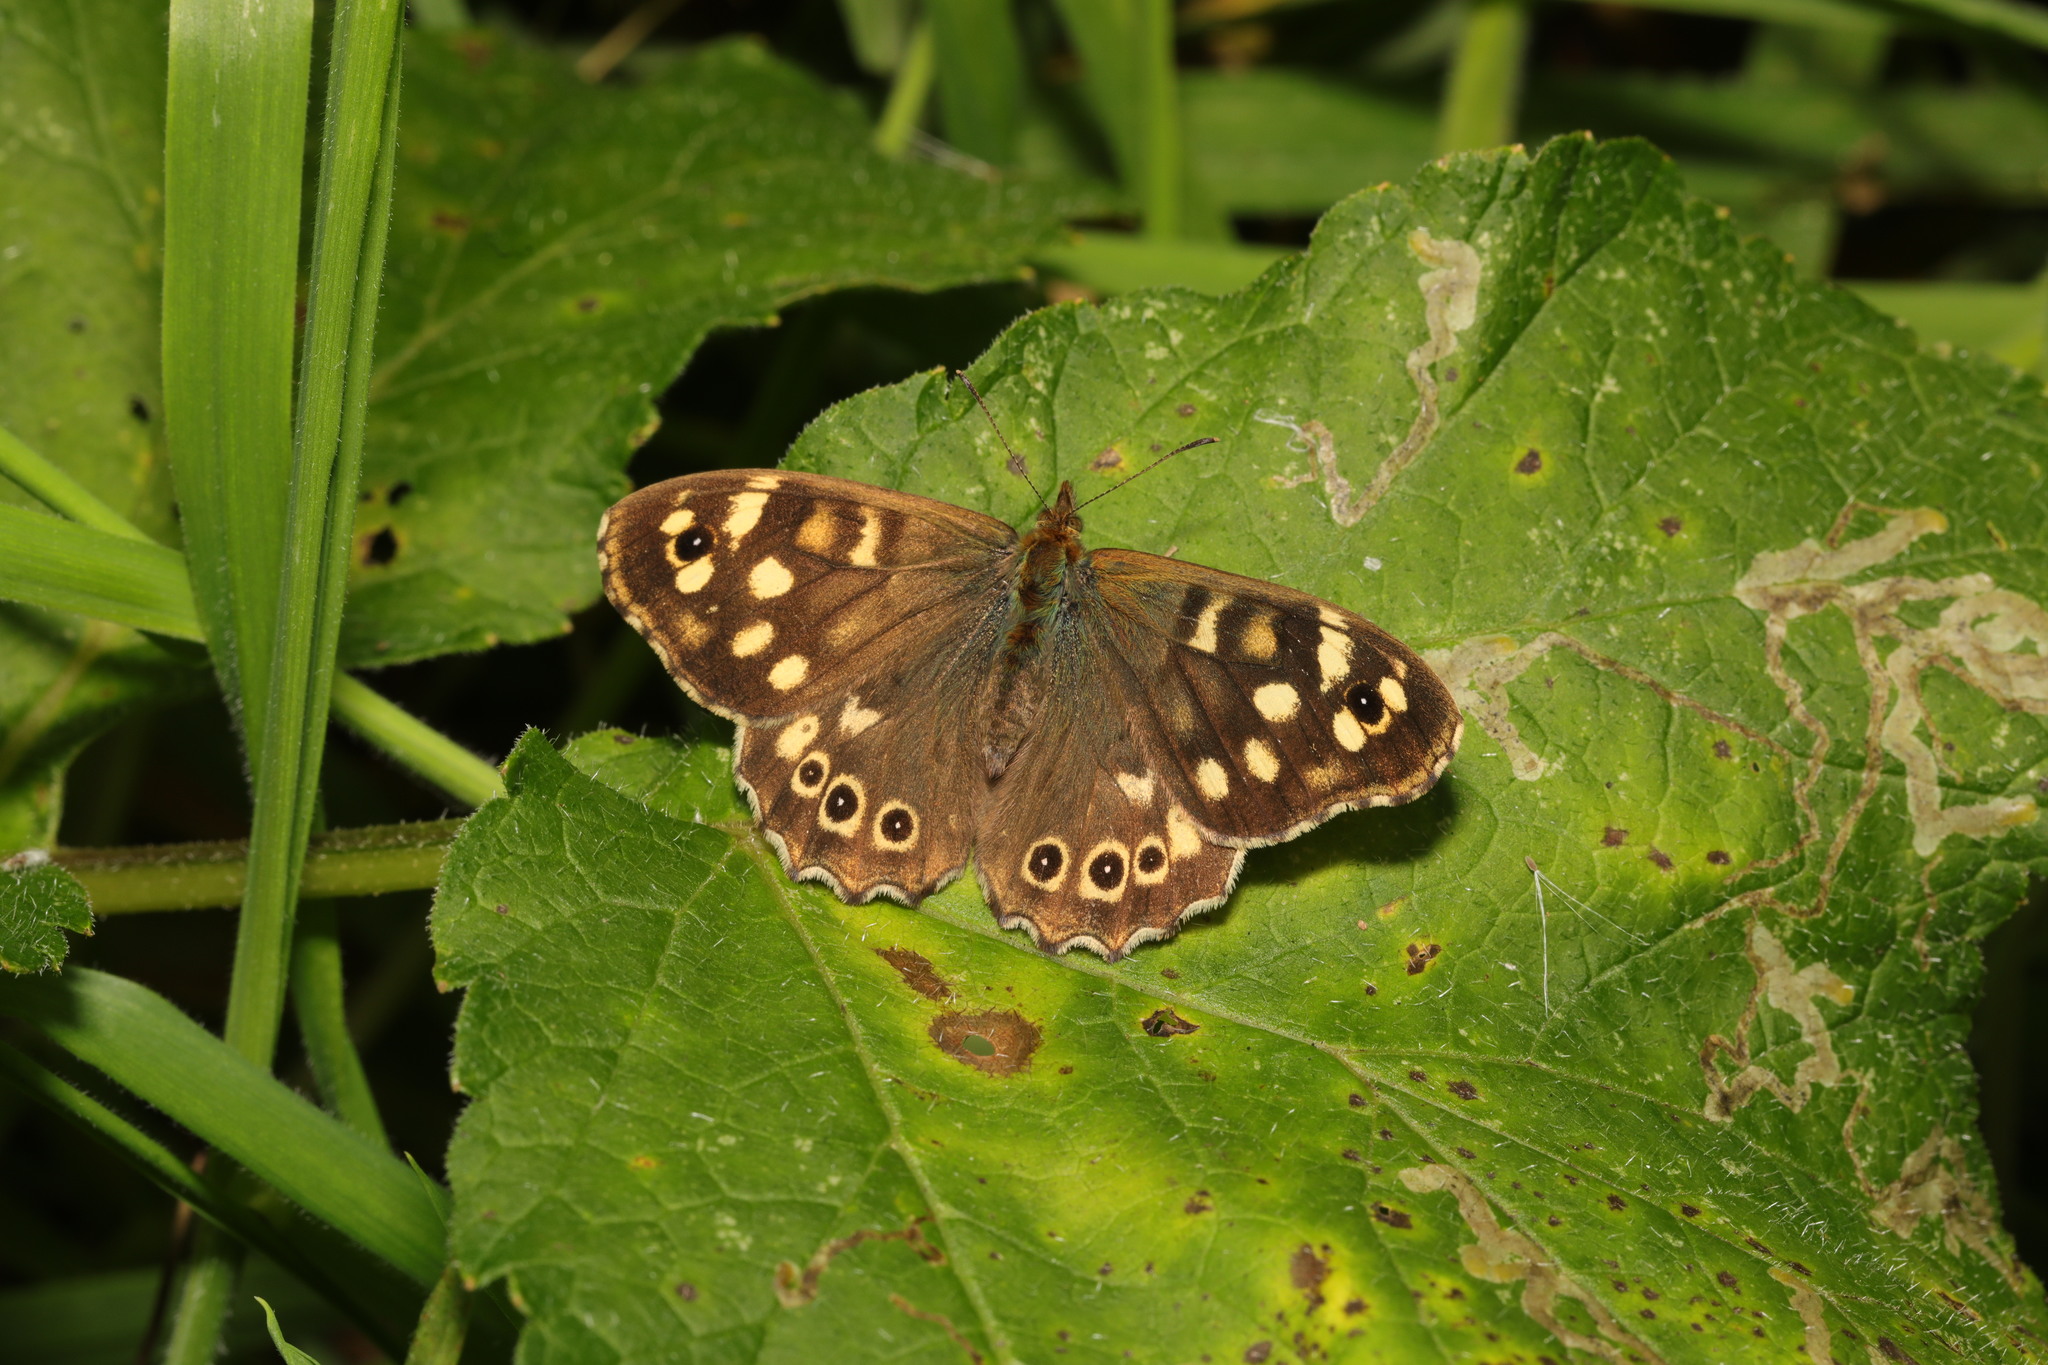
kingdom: Animalia
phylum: Arthropoda
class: Insecta
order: Lepidoptera
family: Nymphalidae
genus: Pararge
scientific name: Pararge aegeria
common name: Speckled wood
